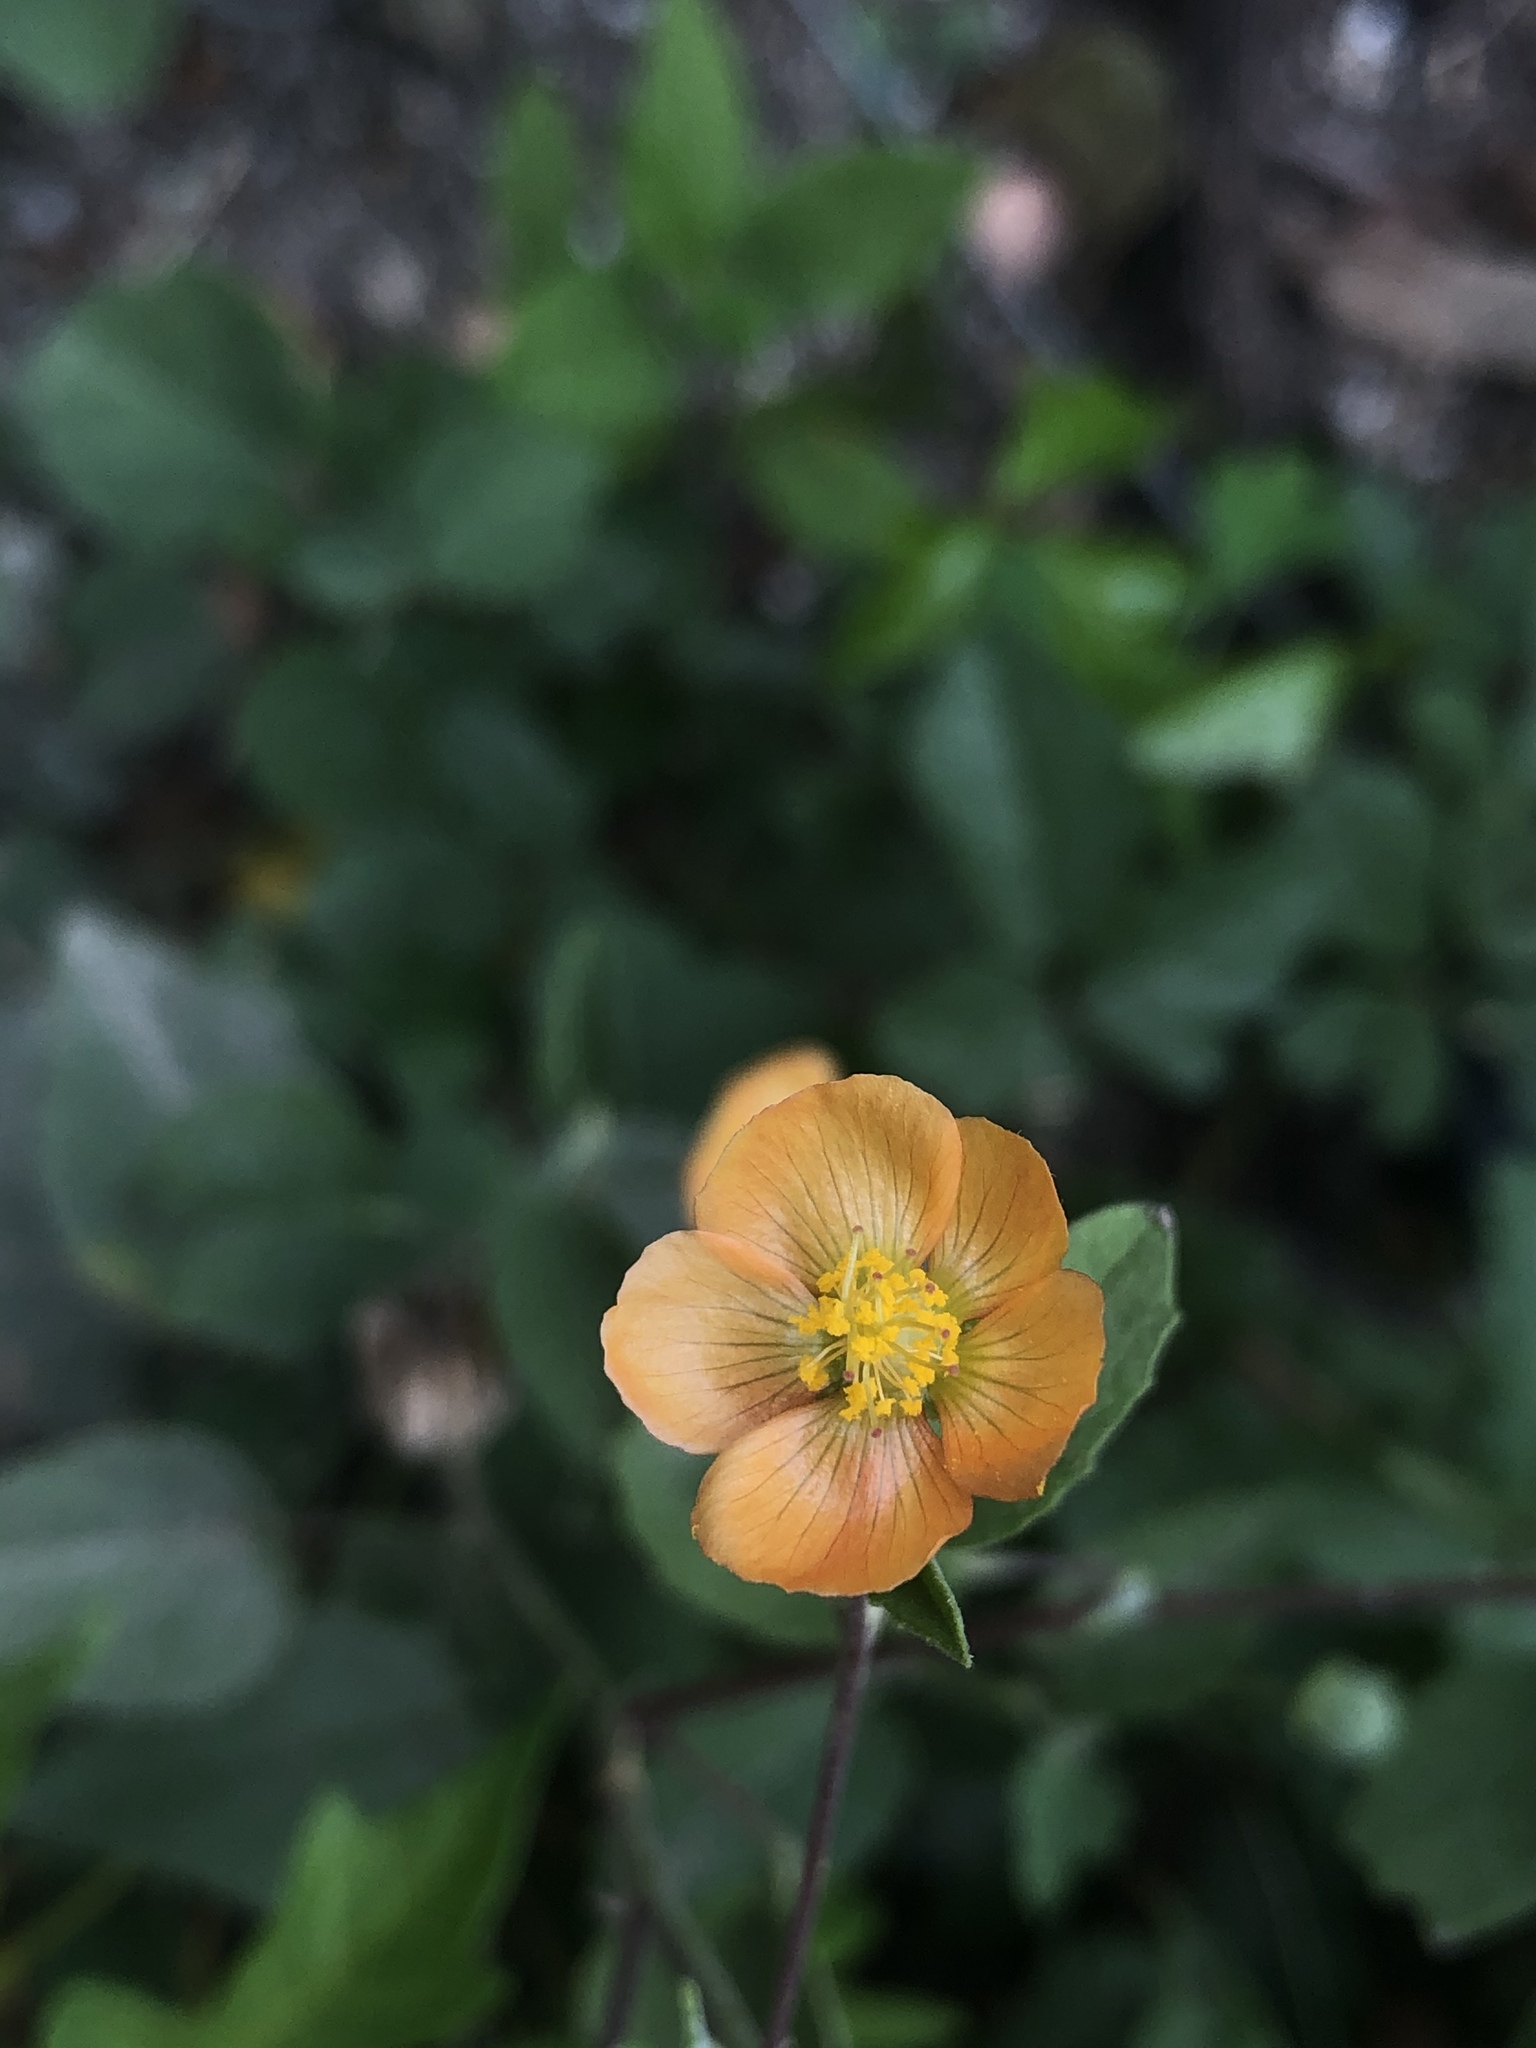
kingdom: Plantae
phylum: Tracheophyta
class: Magnoliopsida
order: Malvales
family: Malvaceae
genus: Abutilon
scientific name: Abutilon fruticosum
